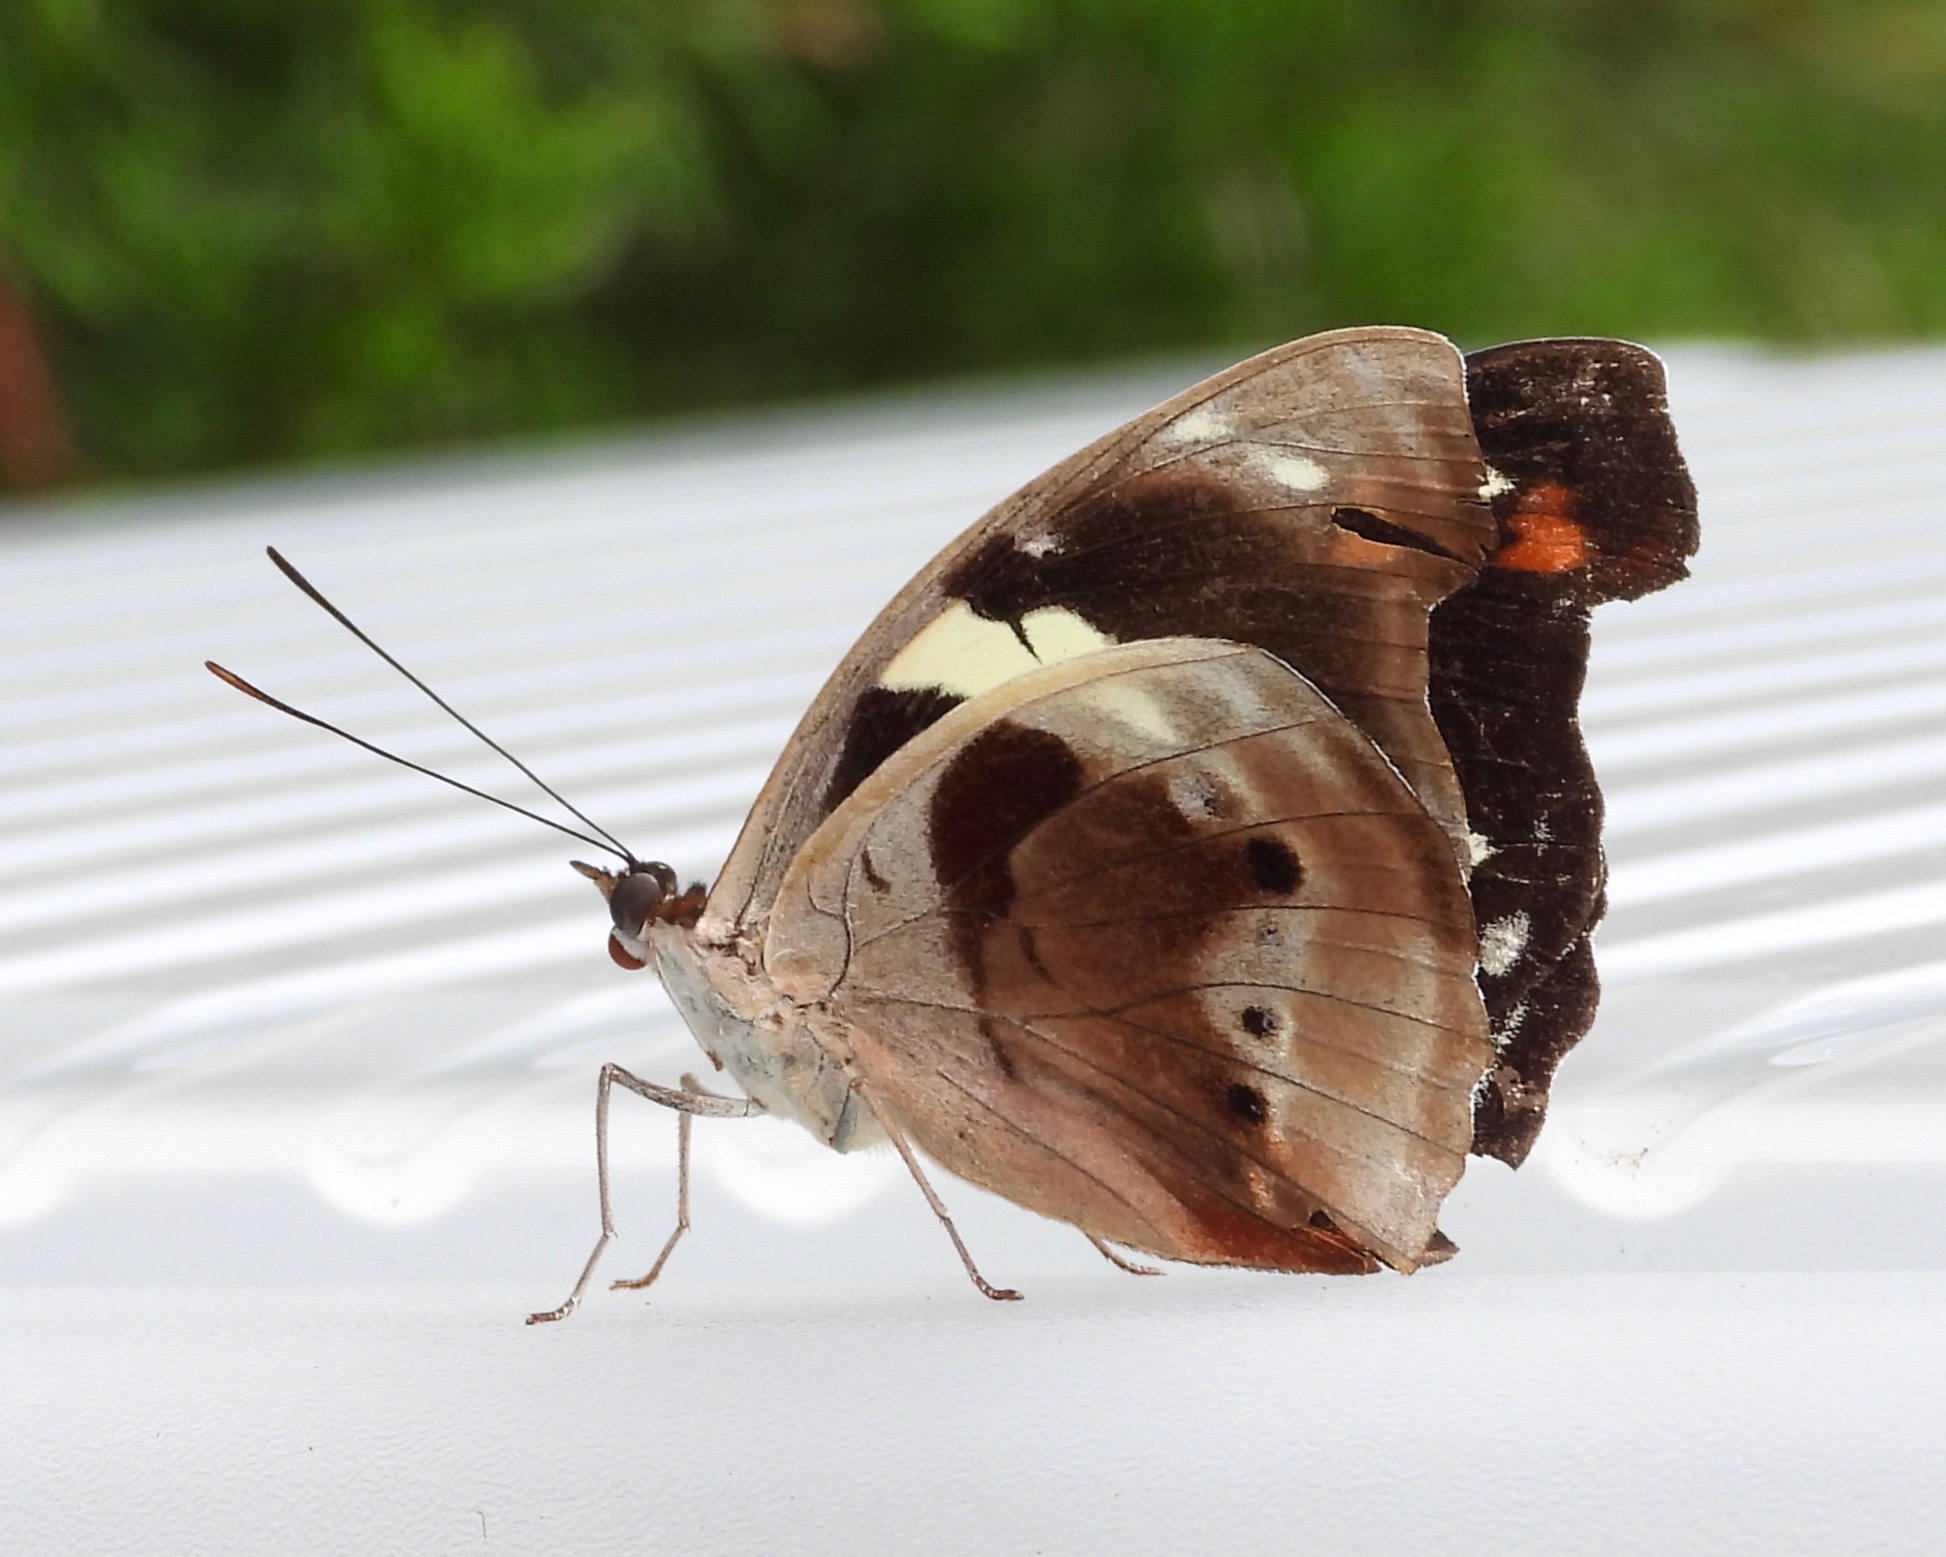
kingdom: Animalia
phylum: Arthropoda
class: Insecta
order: Lepidoptera
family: Nymphalidae
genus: Catonephele
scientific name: Catonephele numilia
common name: Blue-frosted banner
